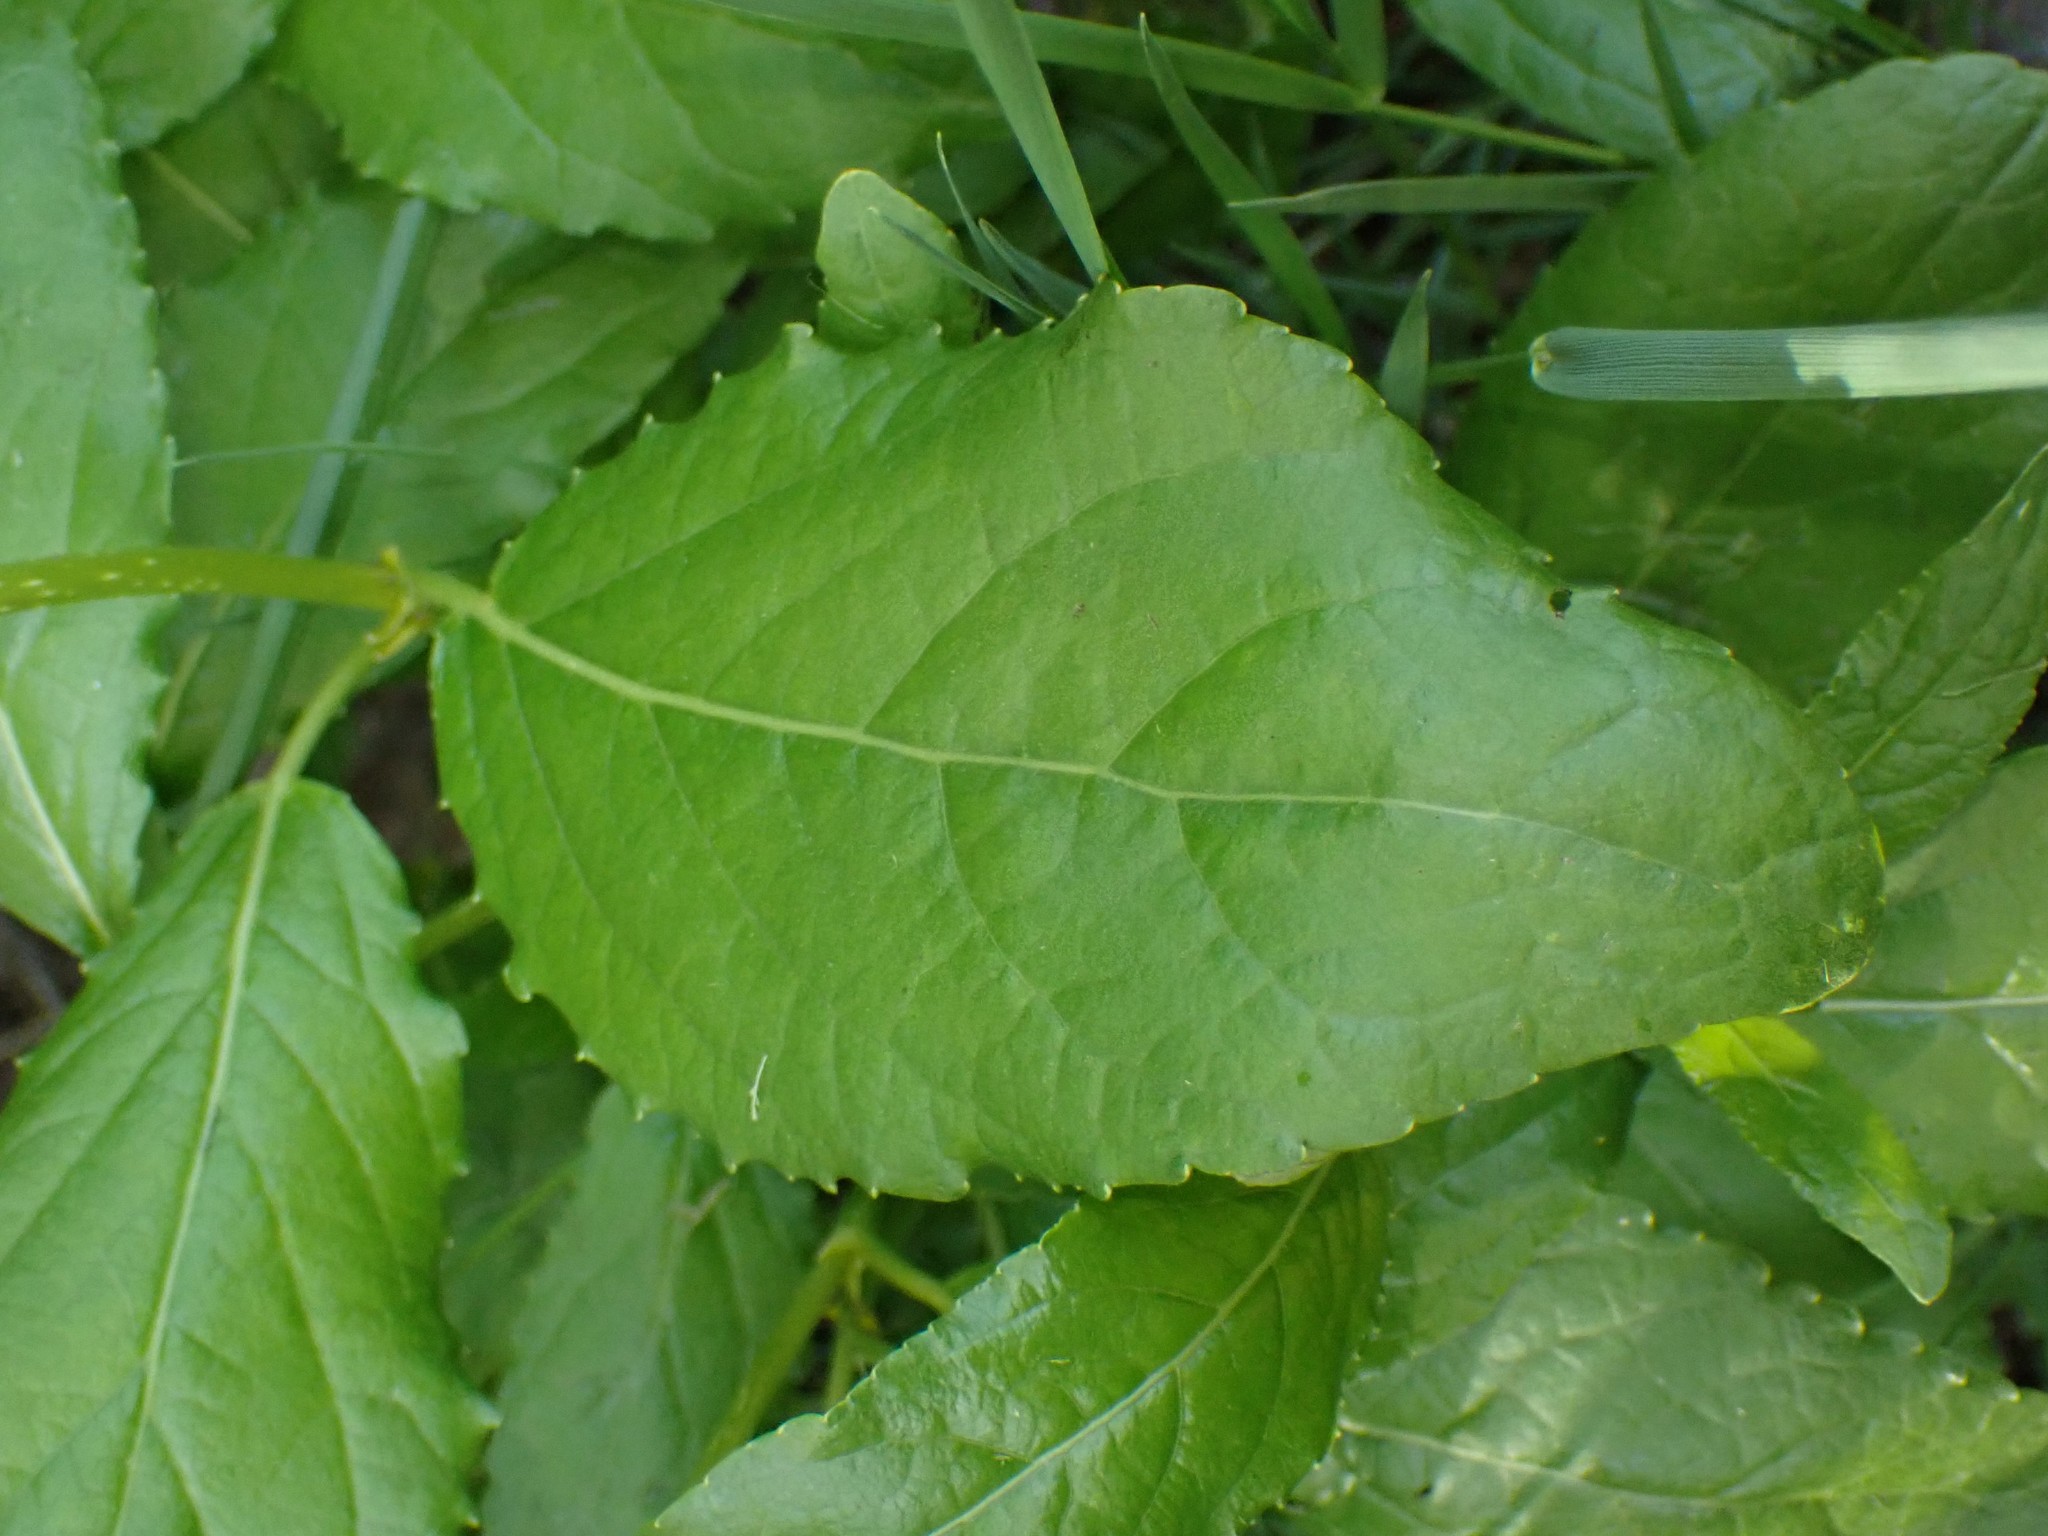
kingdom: Plantae
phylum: Tracheophyta
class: Magnoliopsida
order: Malpighiales
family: Salicaceae
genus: Populus
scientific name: Populus trichocarpa
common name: Black cottonwood
